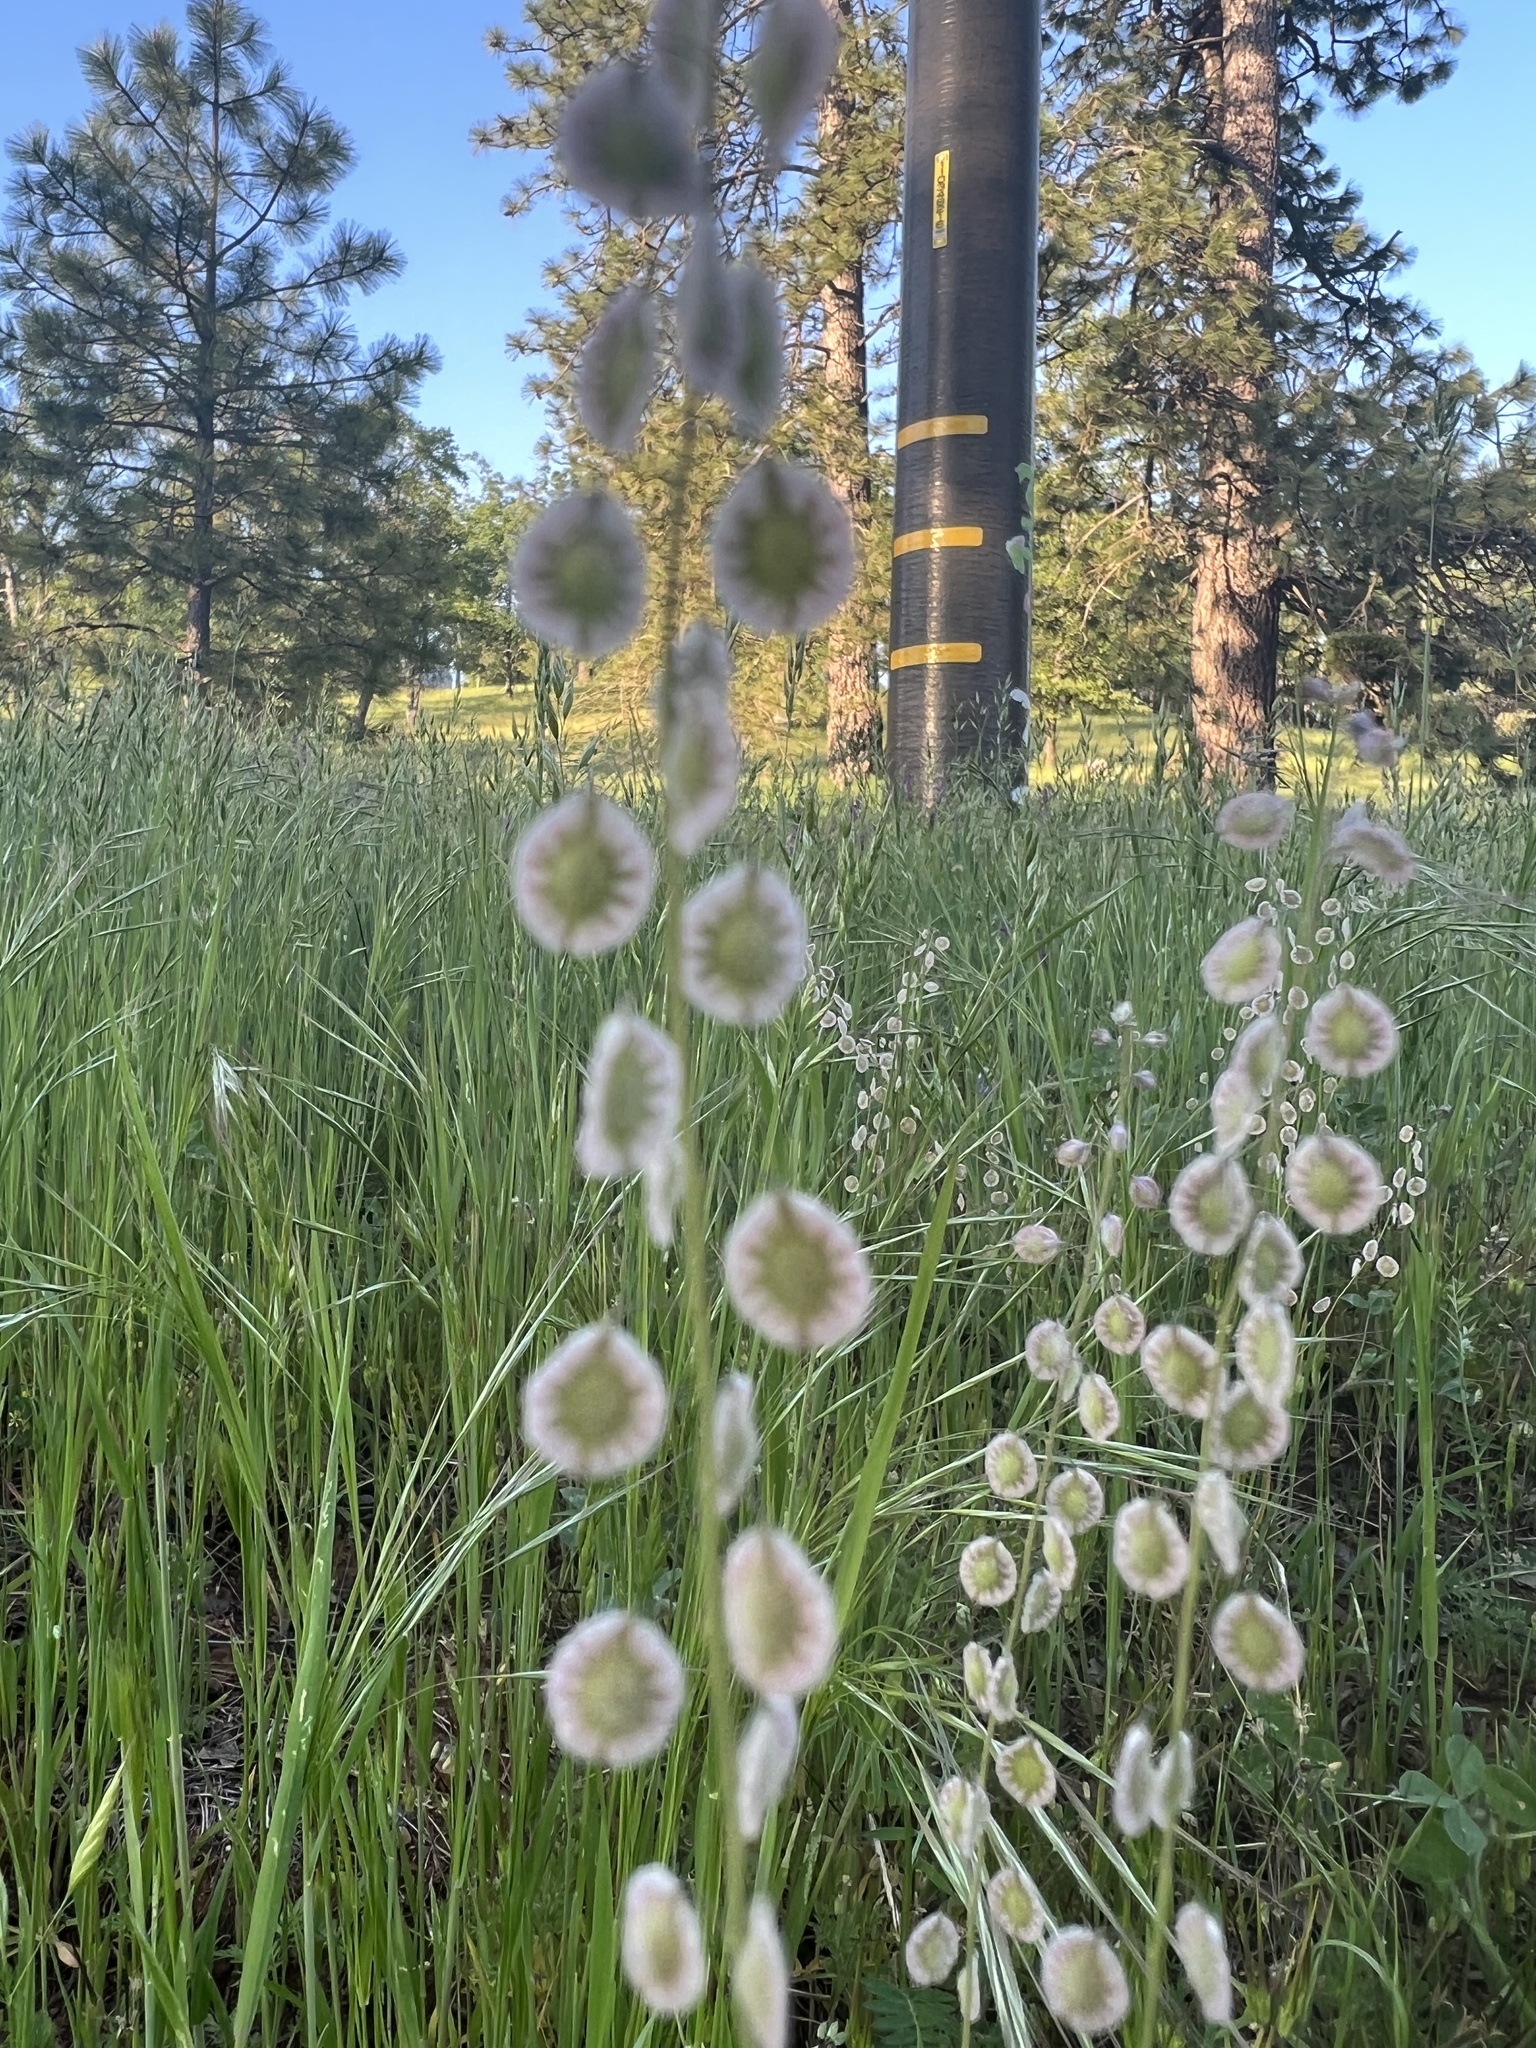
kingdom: Plantae
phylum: Tracheophyta
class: Magnoliopsida
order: Brassicales
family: Brassicaceae
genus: Thysanocarpus
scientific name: Thysanocarpus curvipes
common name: Sand fringepod
